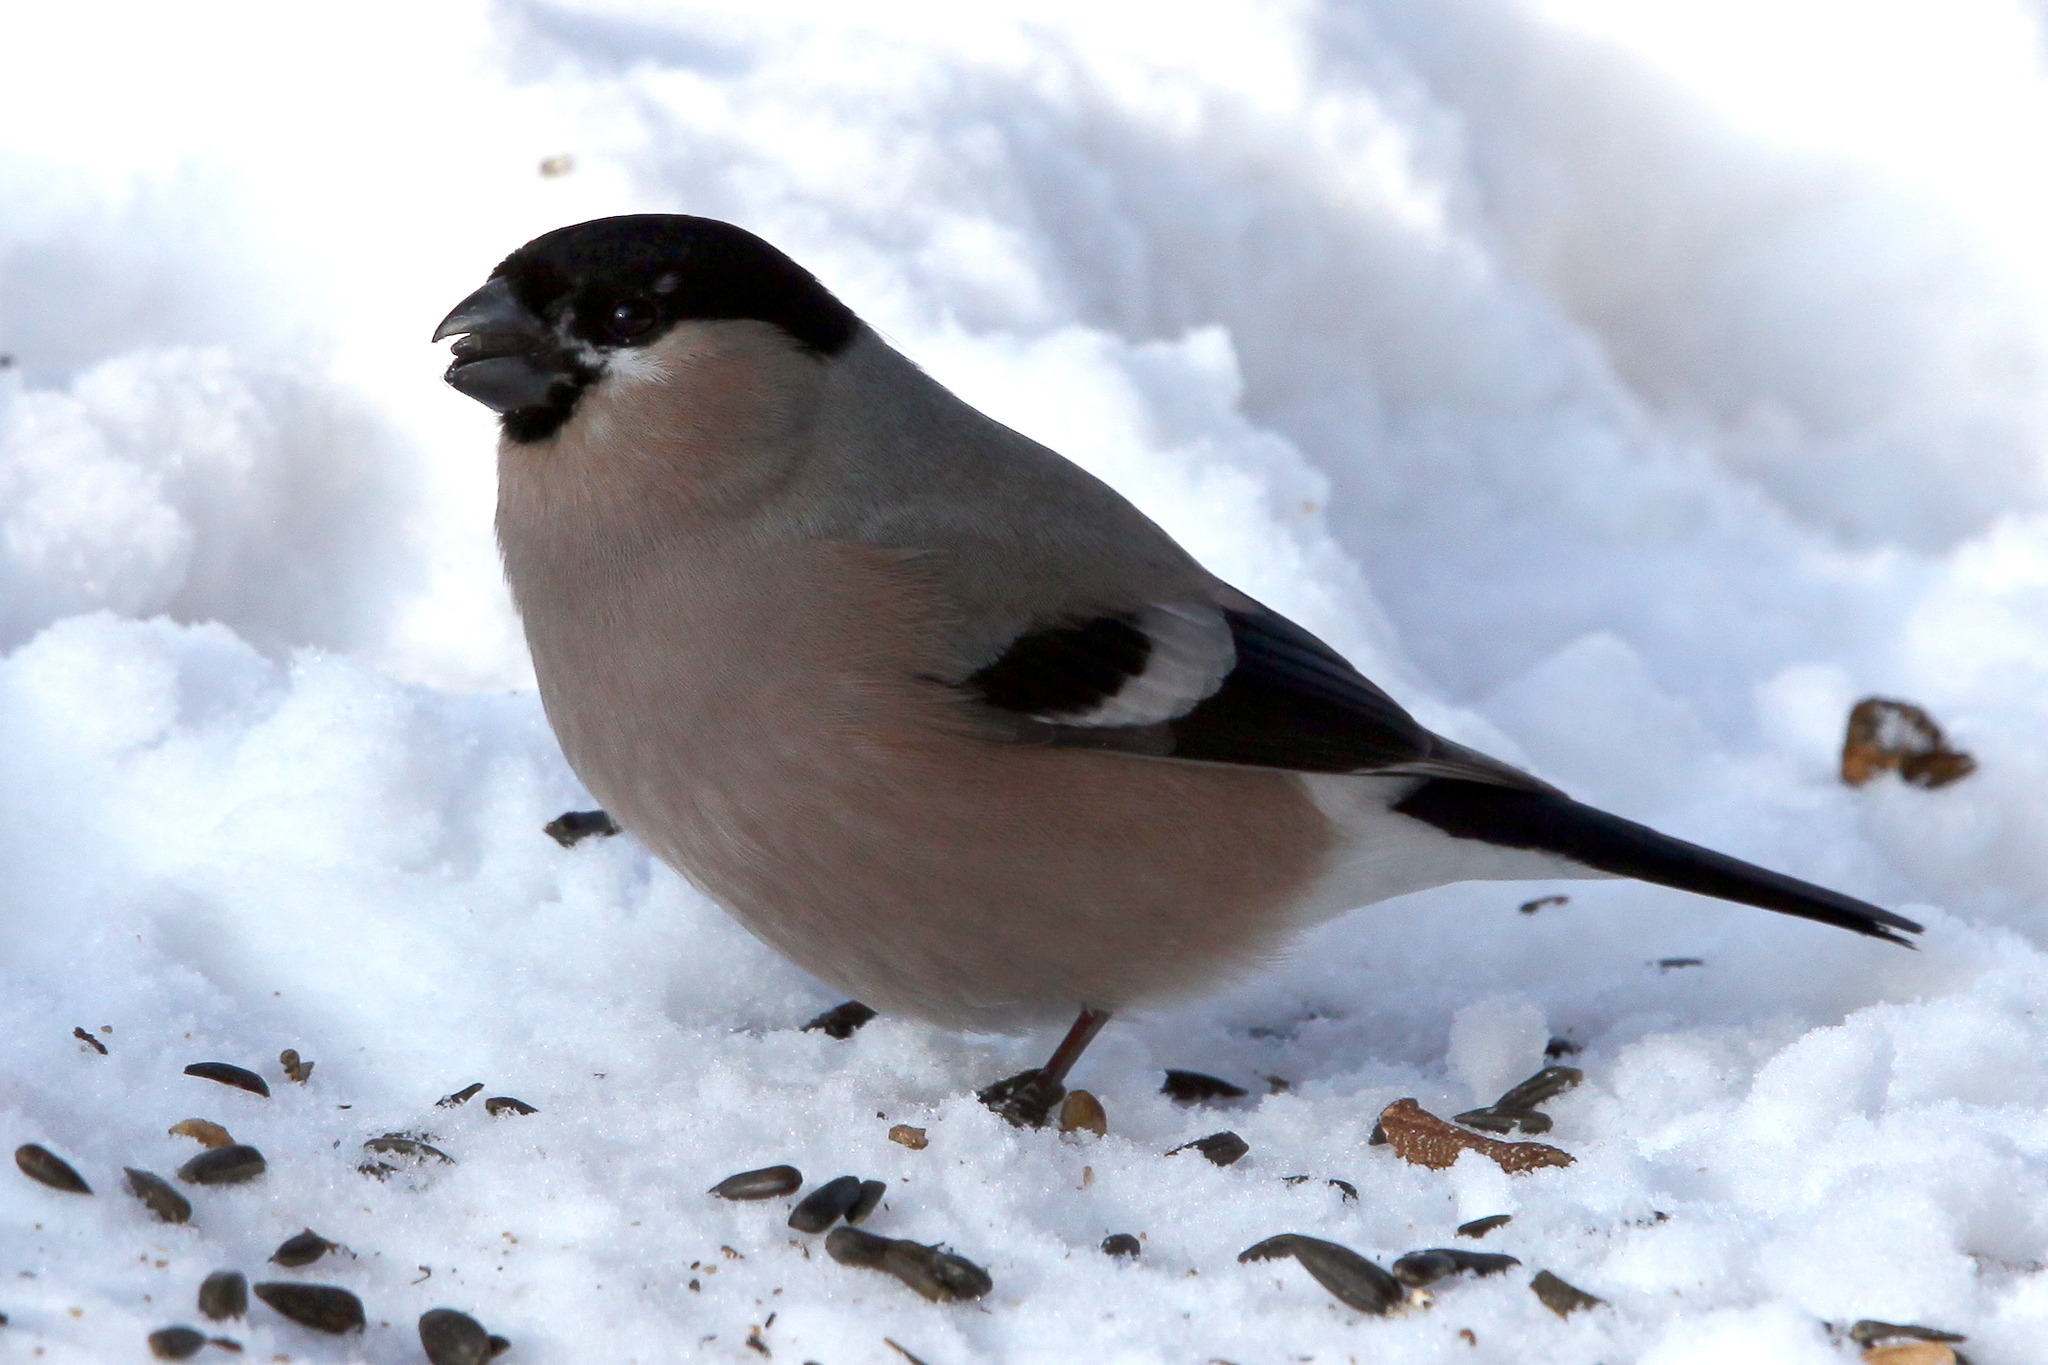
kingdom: Animalia
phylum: Chordata
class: Aves
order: Passeriformes
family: Fringillidae
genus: Pyrrhula
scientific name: Pyrrhula pyrrhula
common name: Eurasian bullfinch
